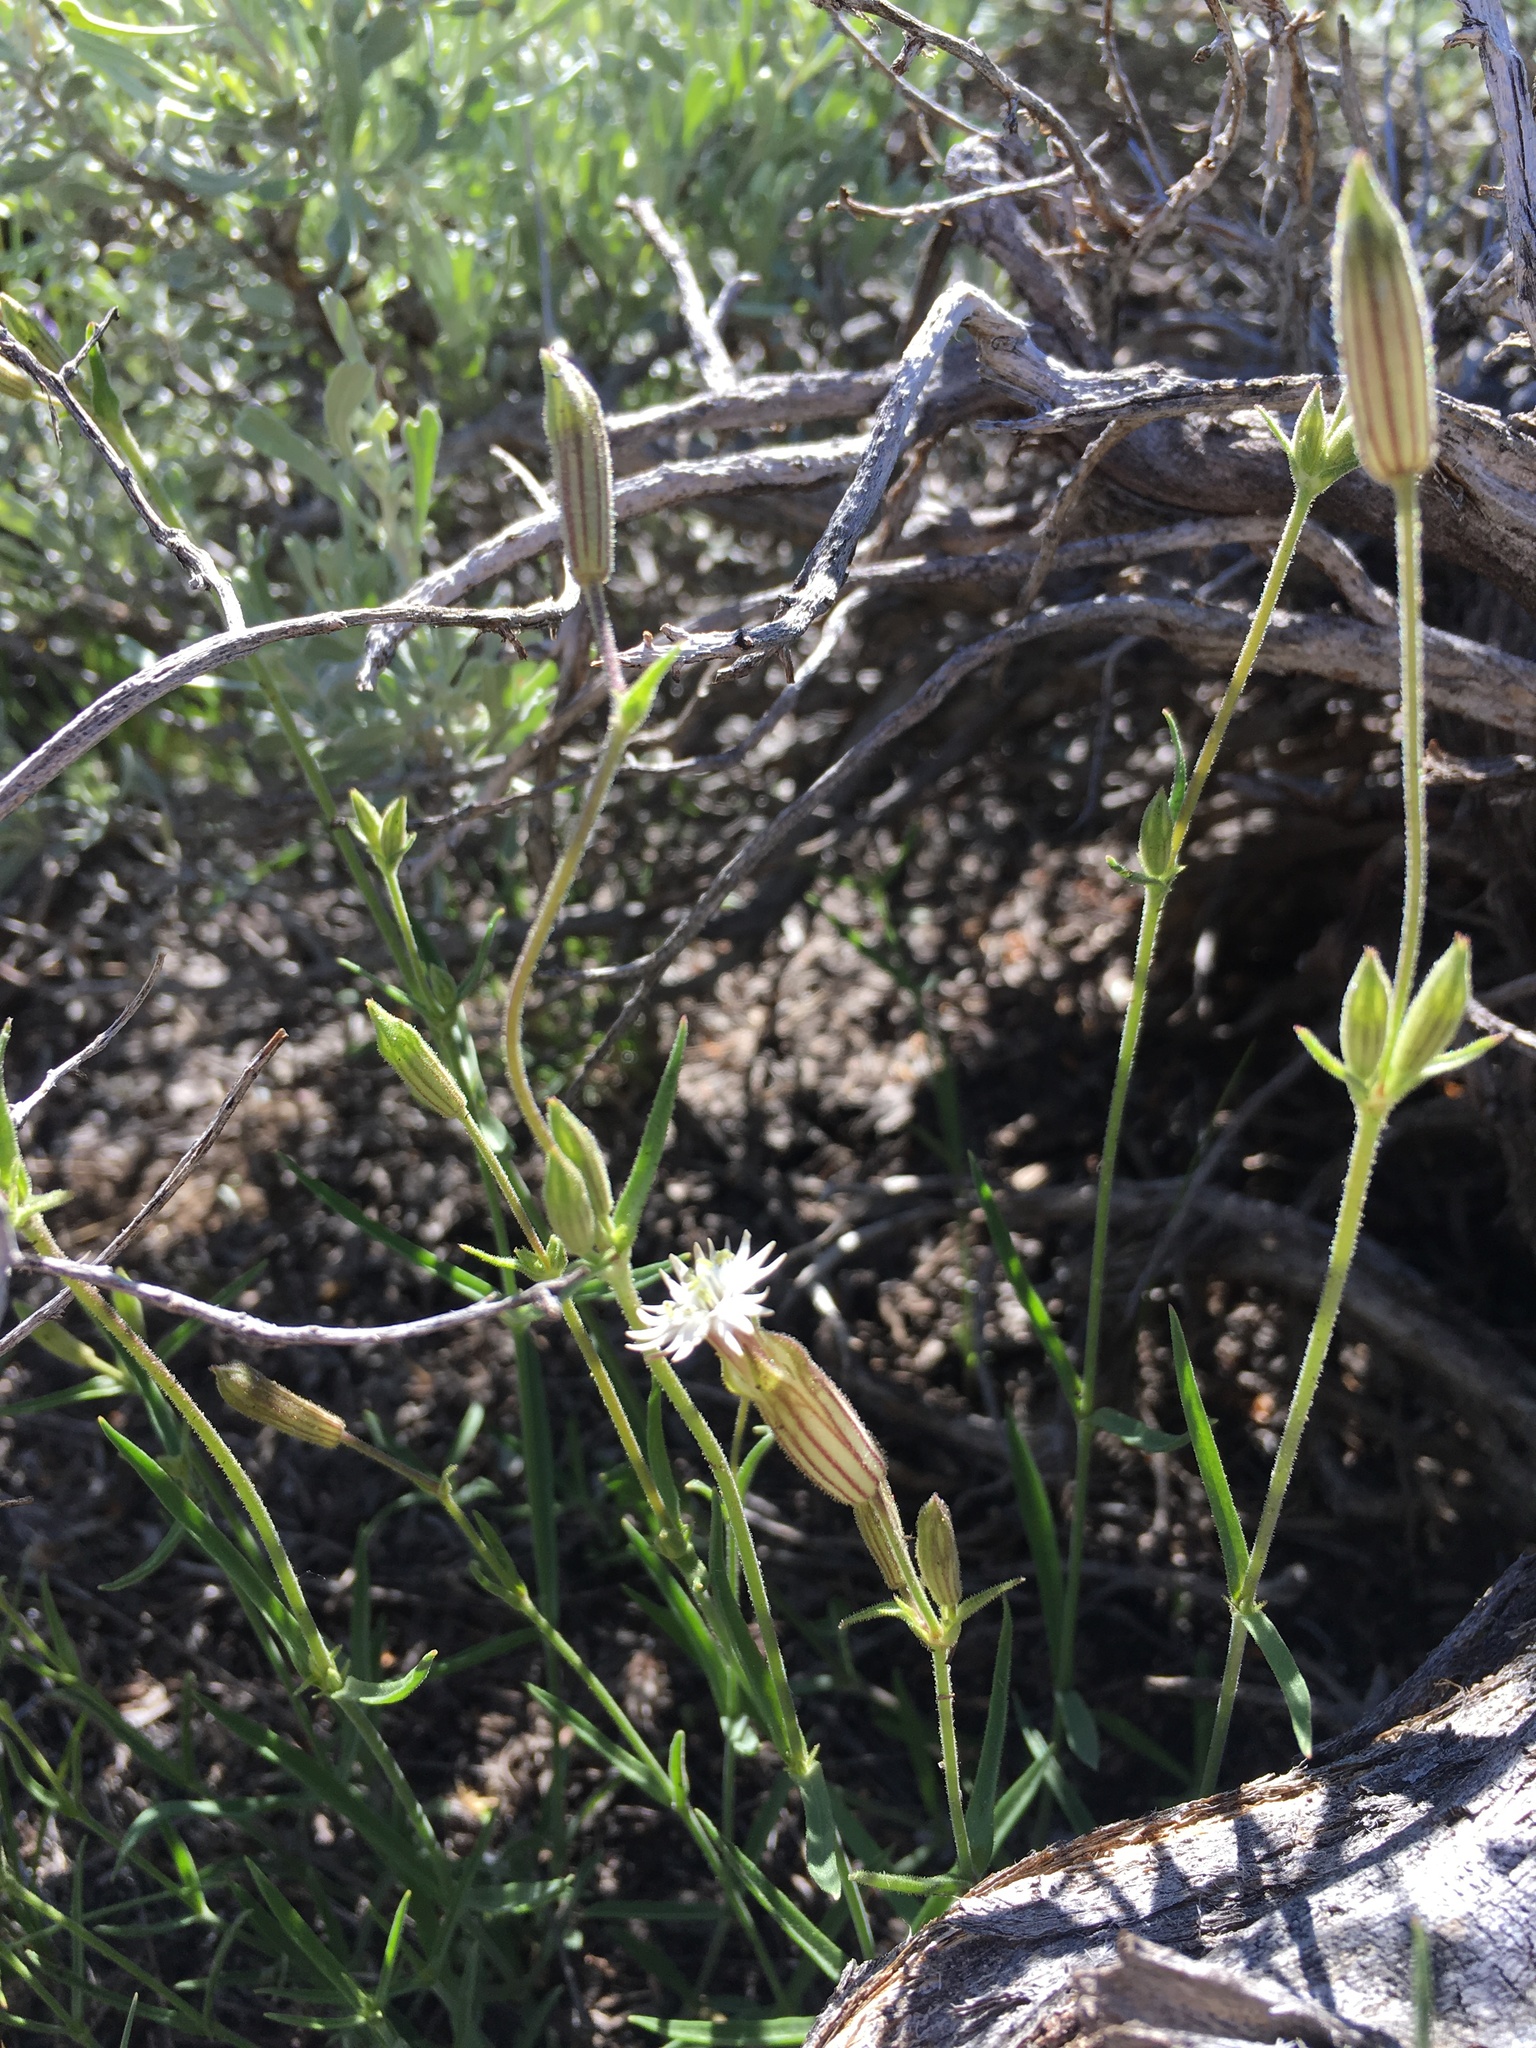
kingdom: Plantae
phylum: Tracheophyta
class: Magnoliopsida
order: Caryophyllales
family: Caryophyllaceae
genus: Silene
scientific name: Silene bernardina
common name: Palmer's catchfly
